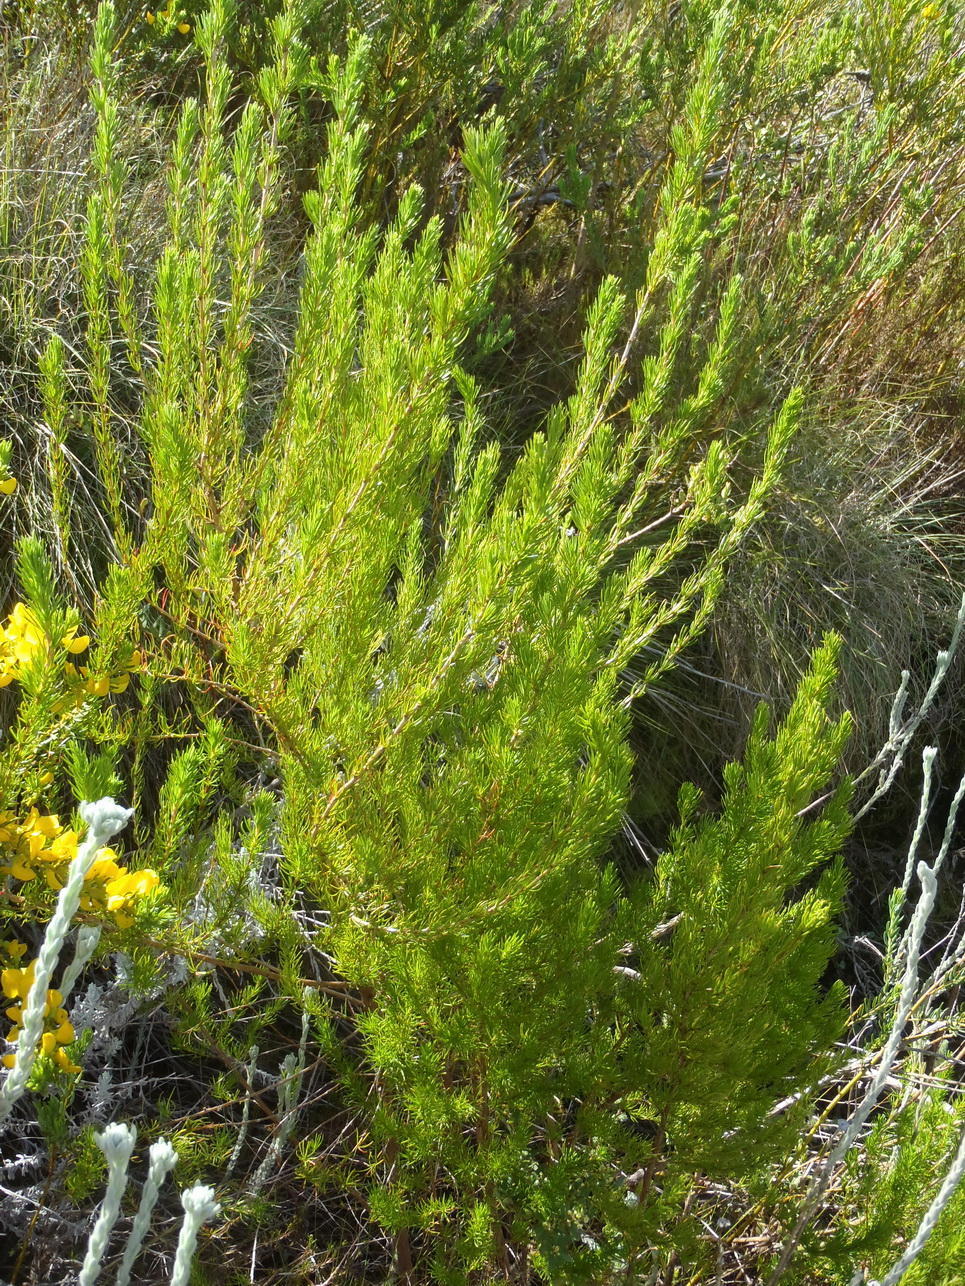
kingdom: Plantae
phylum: Tracheophyta
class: Magnoliopsida
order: Rosales
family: Rosaceae
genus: Cliffortia
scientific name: Cliffortia burchellii
